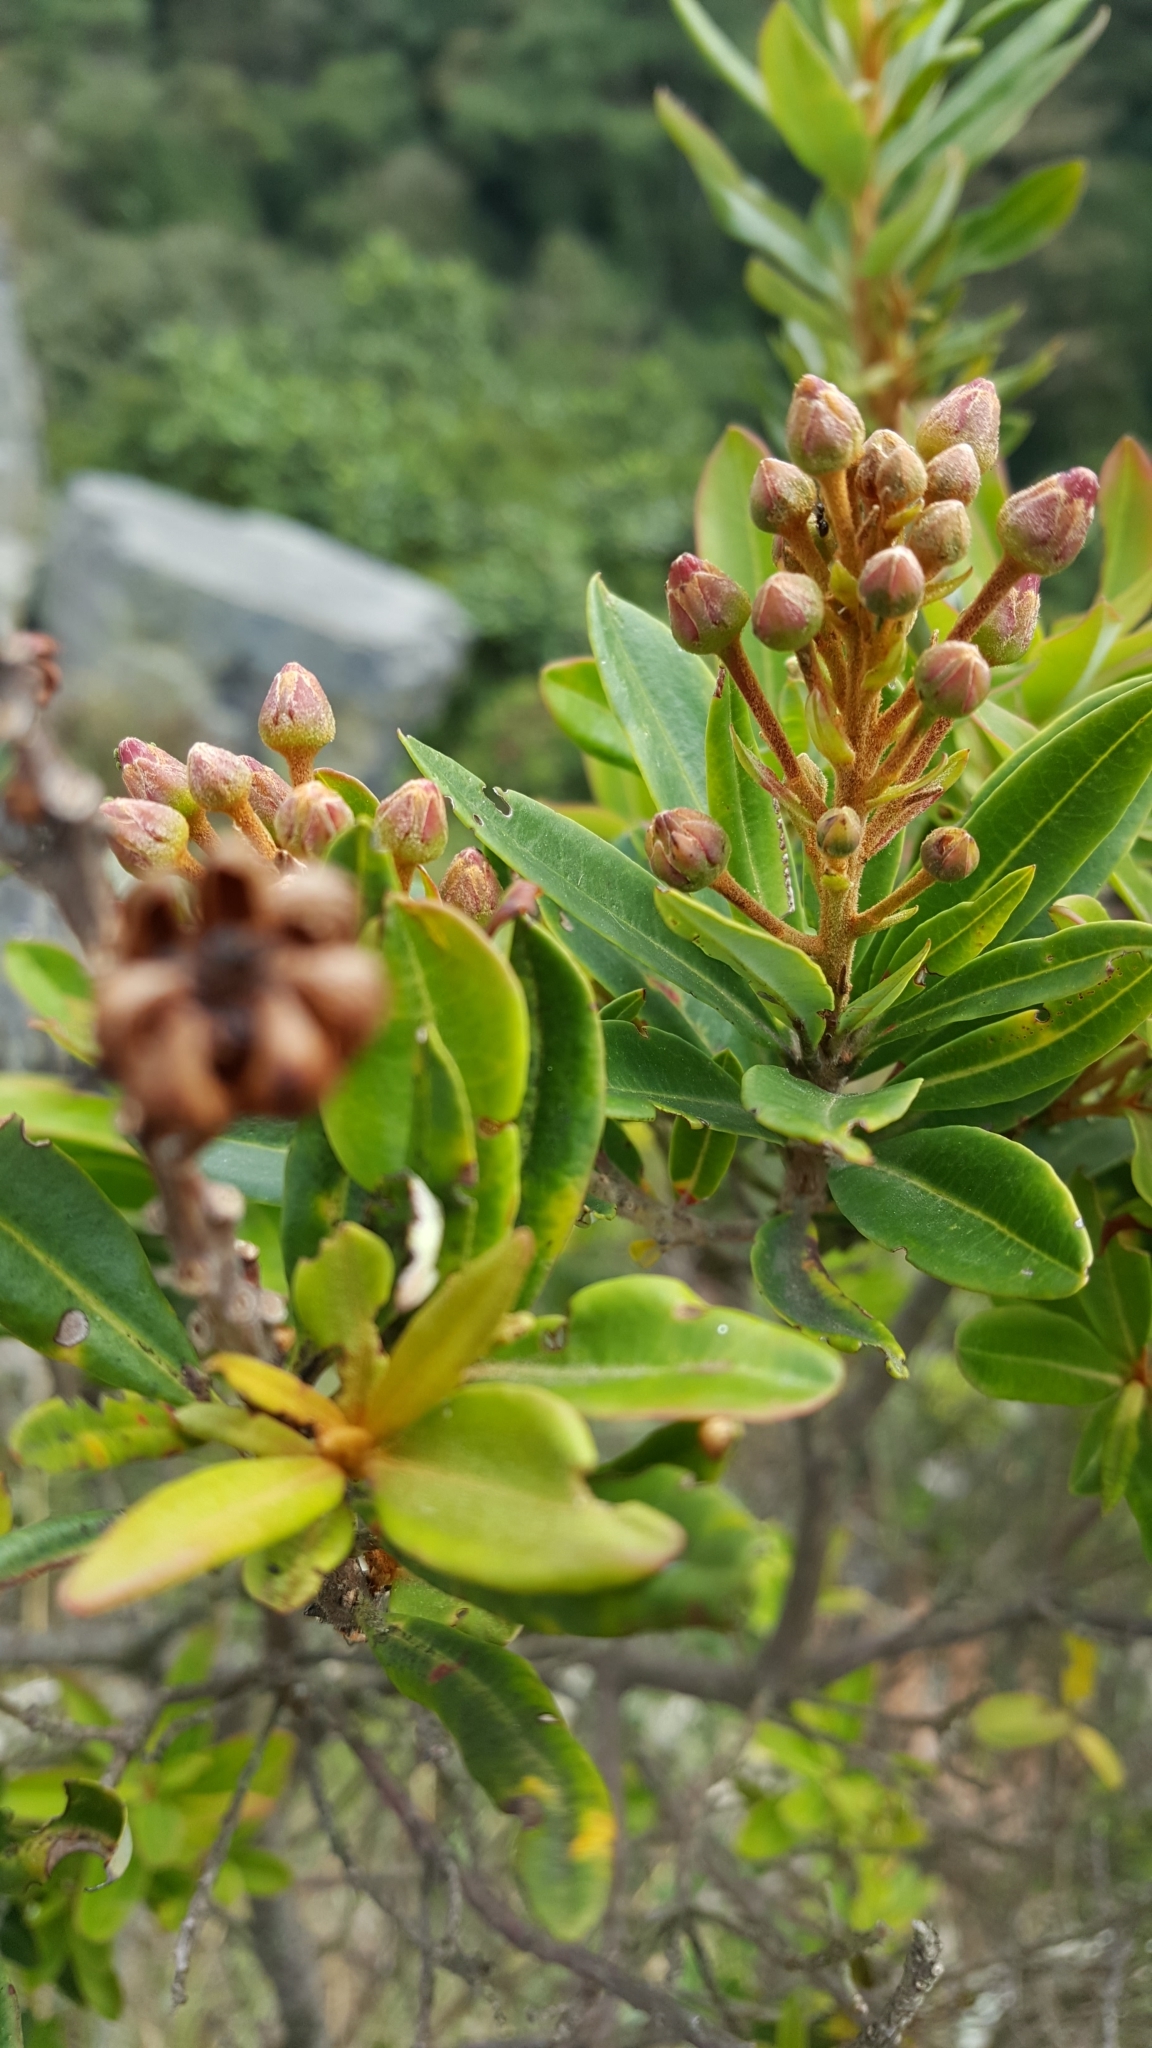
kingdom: Plantae
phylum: Tracheophyta
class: Magnoliopsida
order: Ericales
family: Ericaceae
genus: Bejaria
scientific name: Bejaria mathewsii
